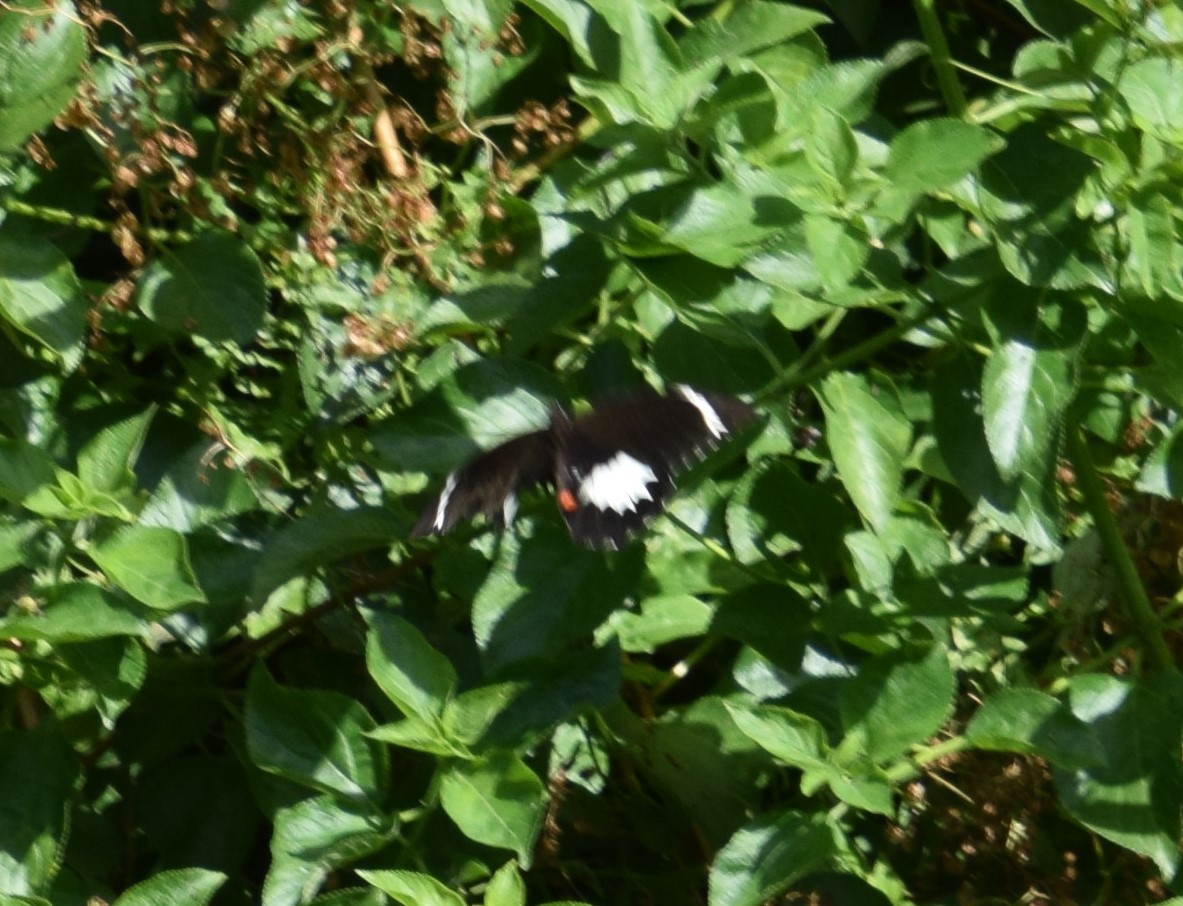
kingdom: Animalia
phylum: Arthropoda
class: Insecta
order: Lepidoptera
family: Papilionidae
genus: Papilio
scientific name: Papilio aegeus
